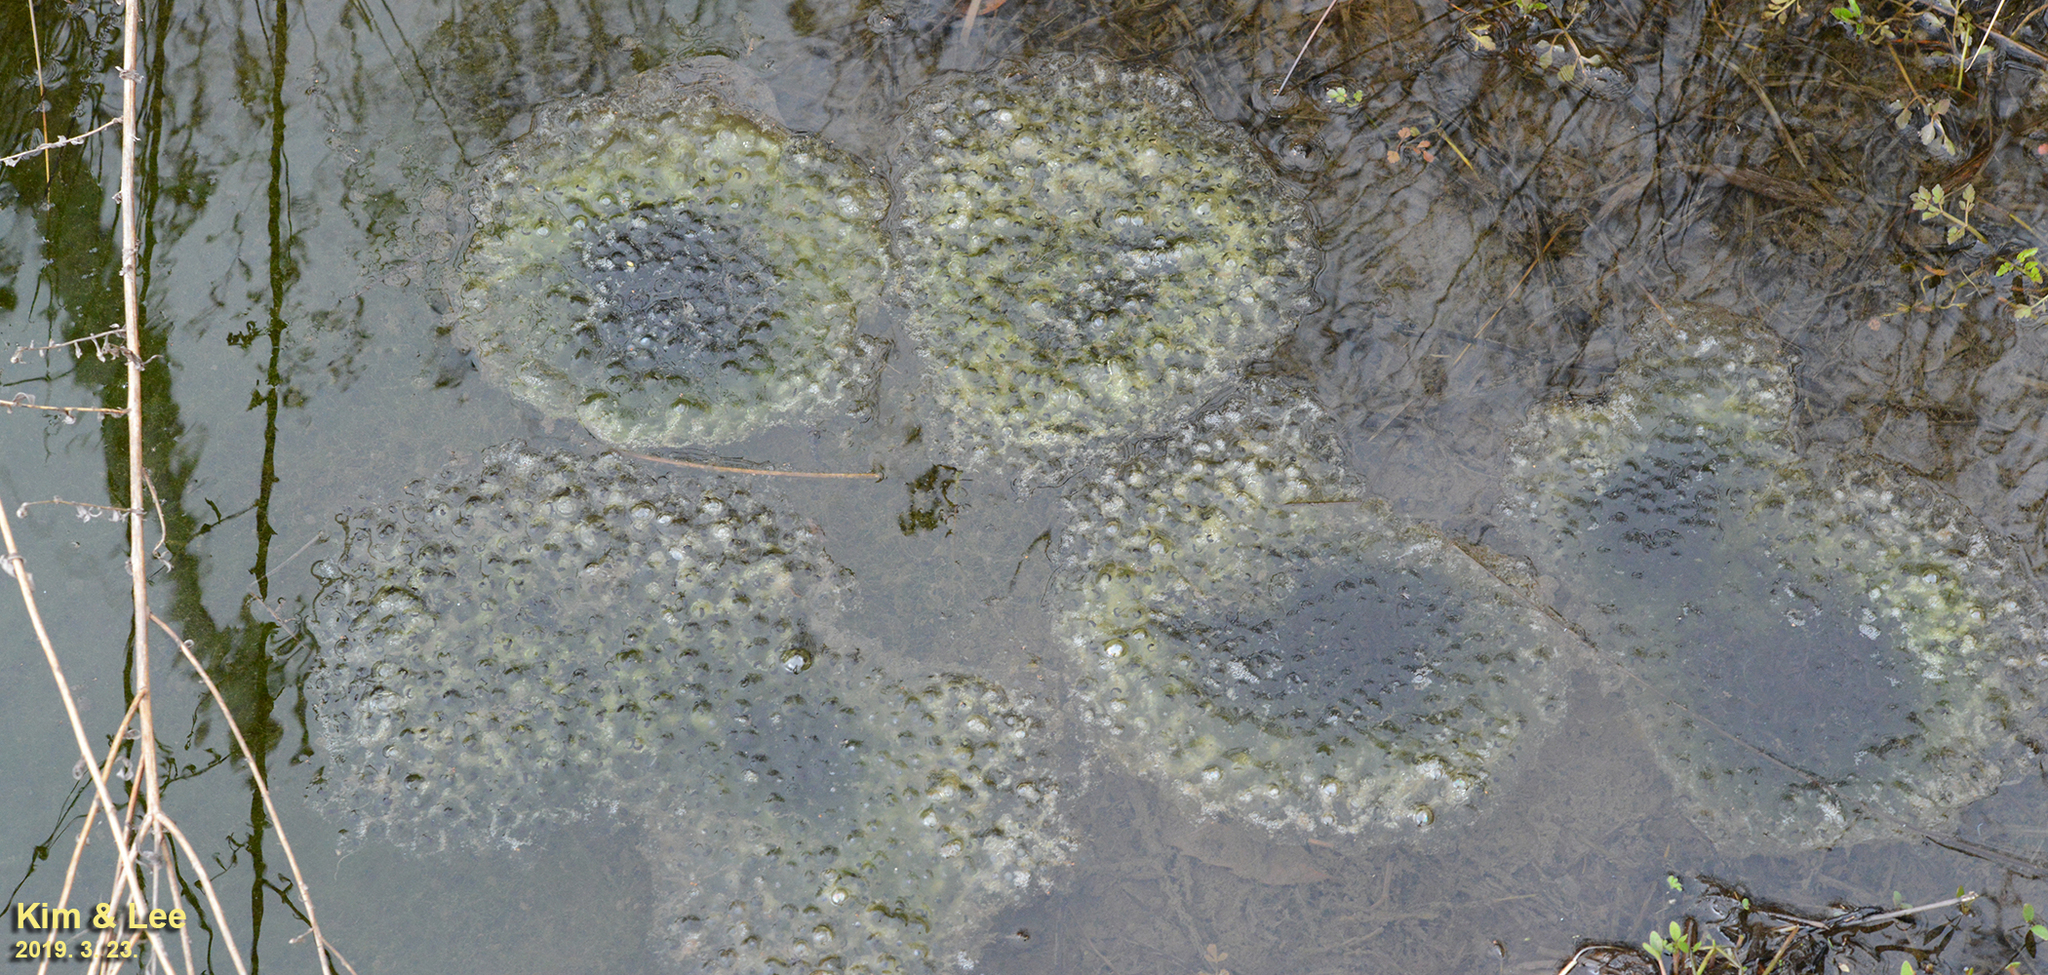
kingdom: Animalia
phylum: Chordata
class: Amphibia
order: Anura
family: Ranidae
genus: Rana
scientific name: Rana uenoi
